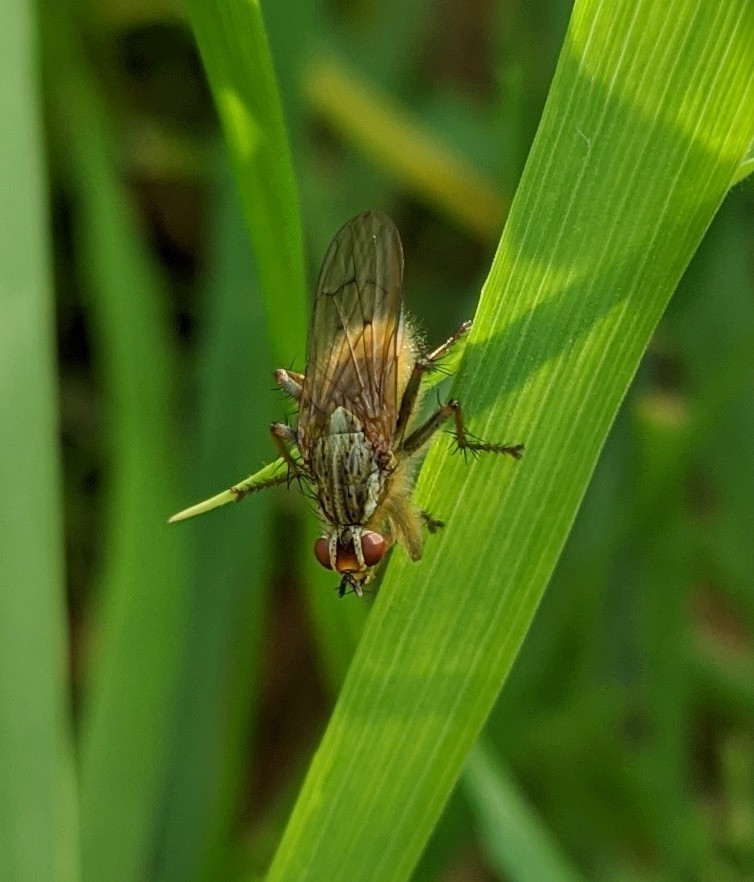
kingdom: Animalia
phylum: Arthropoda
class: Insecta
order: Diptera
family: Scathophagidae
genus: Scathophaga
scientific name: Scathophaga stercoraria
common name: Yellow dung fly
